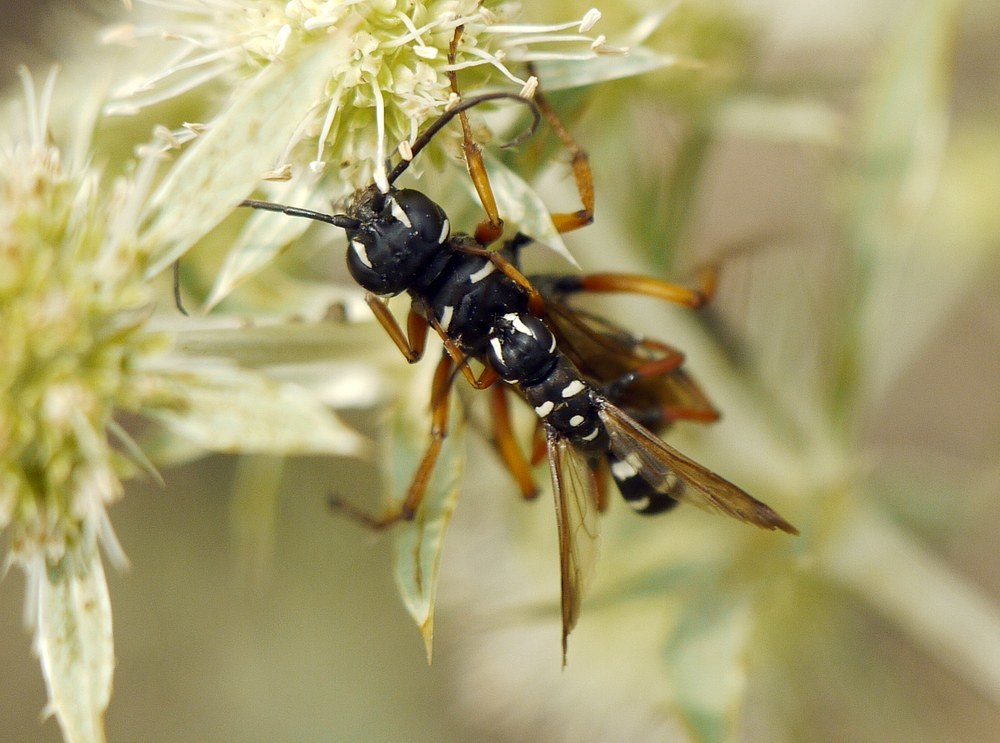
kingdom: Animalia
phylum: Arthropoda
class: Insecta
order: Hymenoptera
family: Pompilidae
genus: Cryptocheilus
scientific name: Cryptocheilus variabilis
